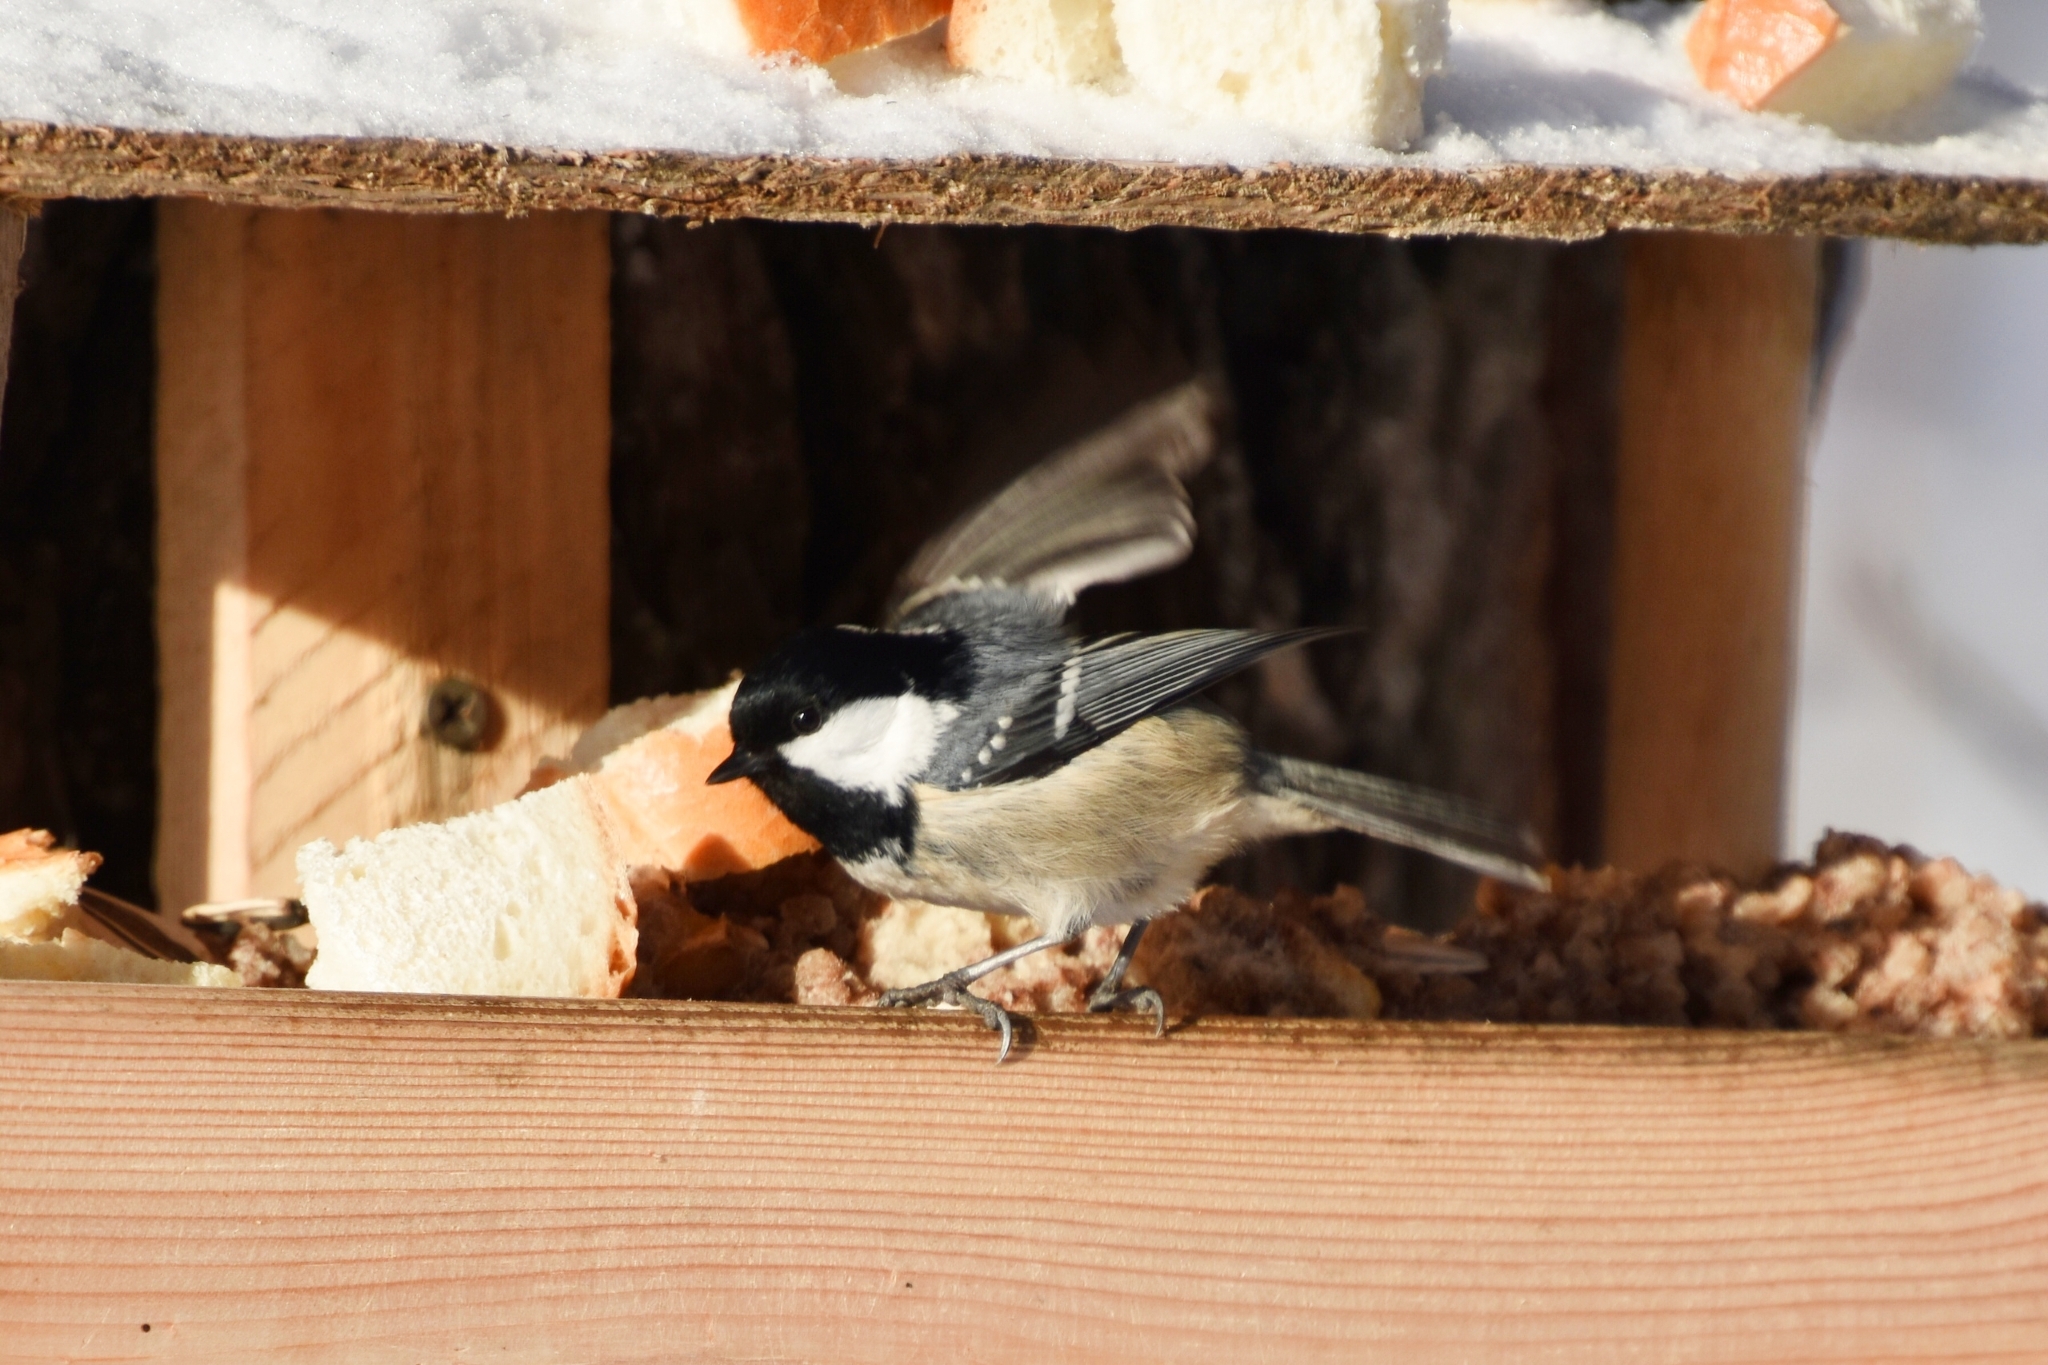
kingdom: Animalia
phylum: Chordata
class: Aves
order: Passeriformes
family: Paridae
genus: Periparus
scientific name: Periparus ater
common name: Coal tit
